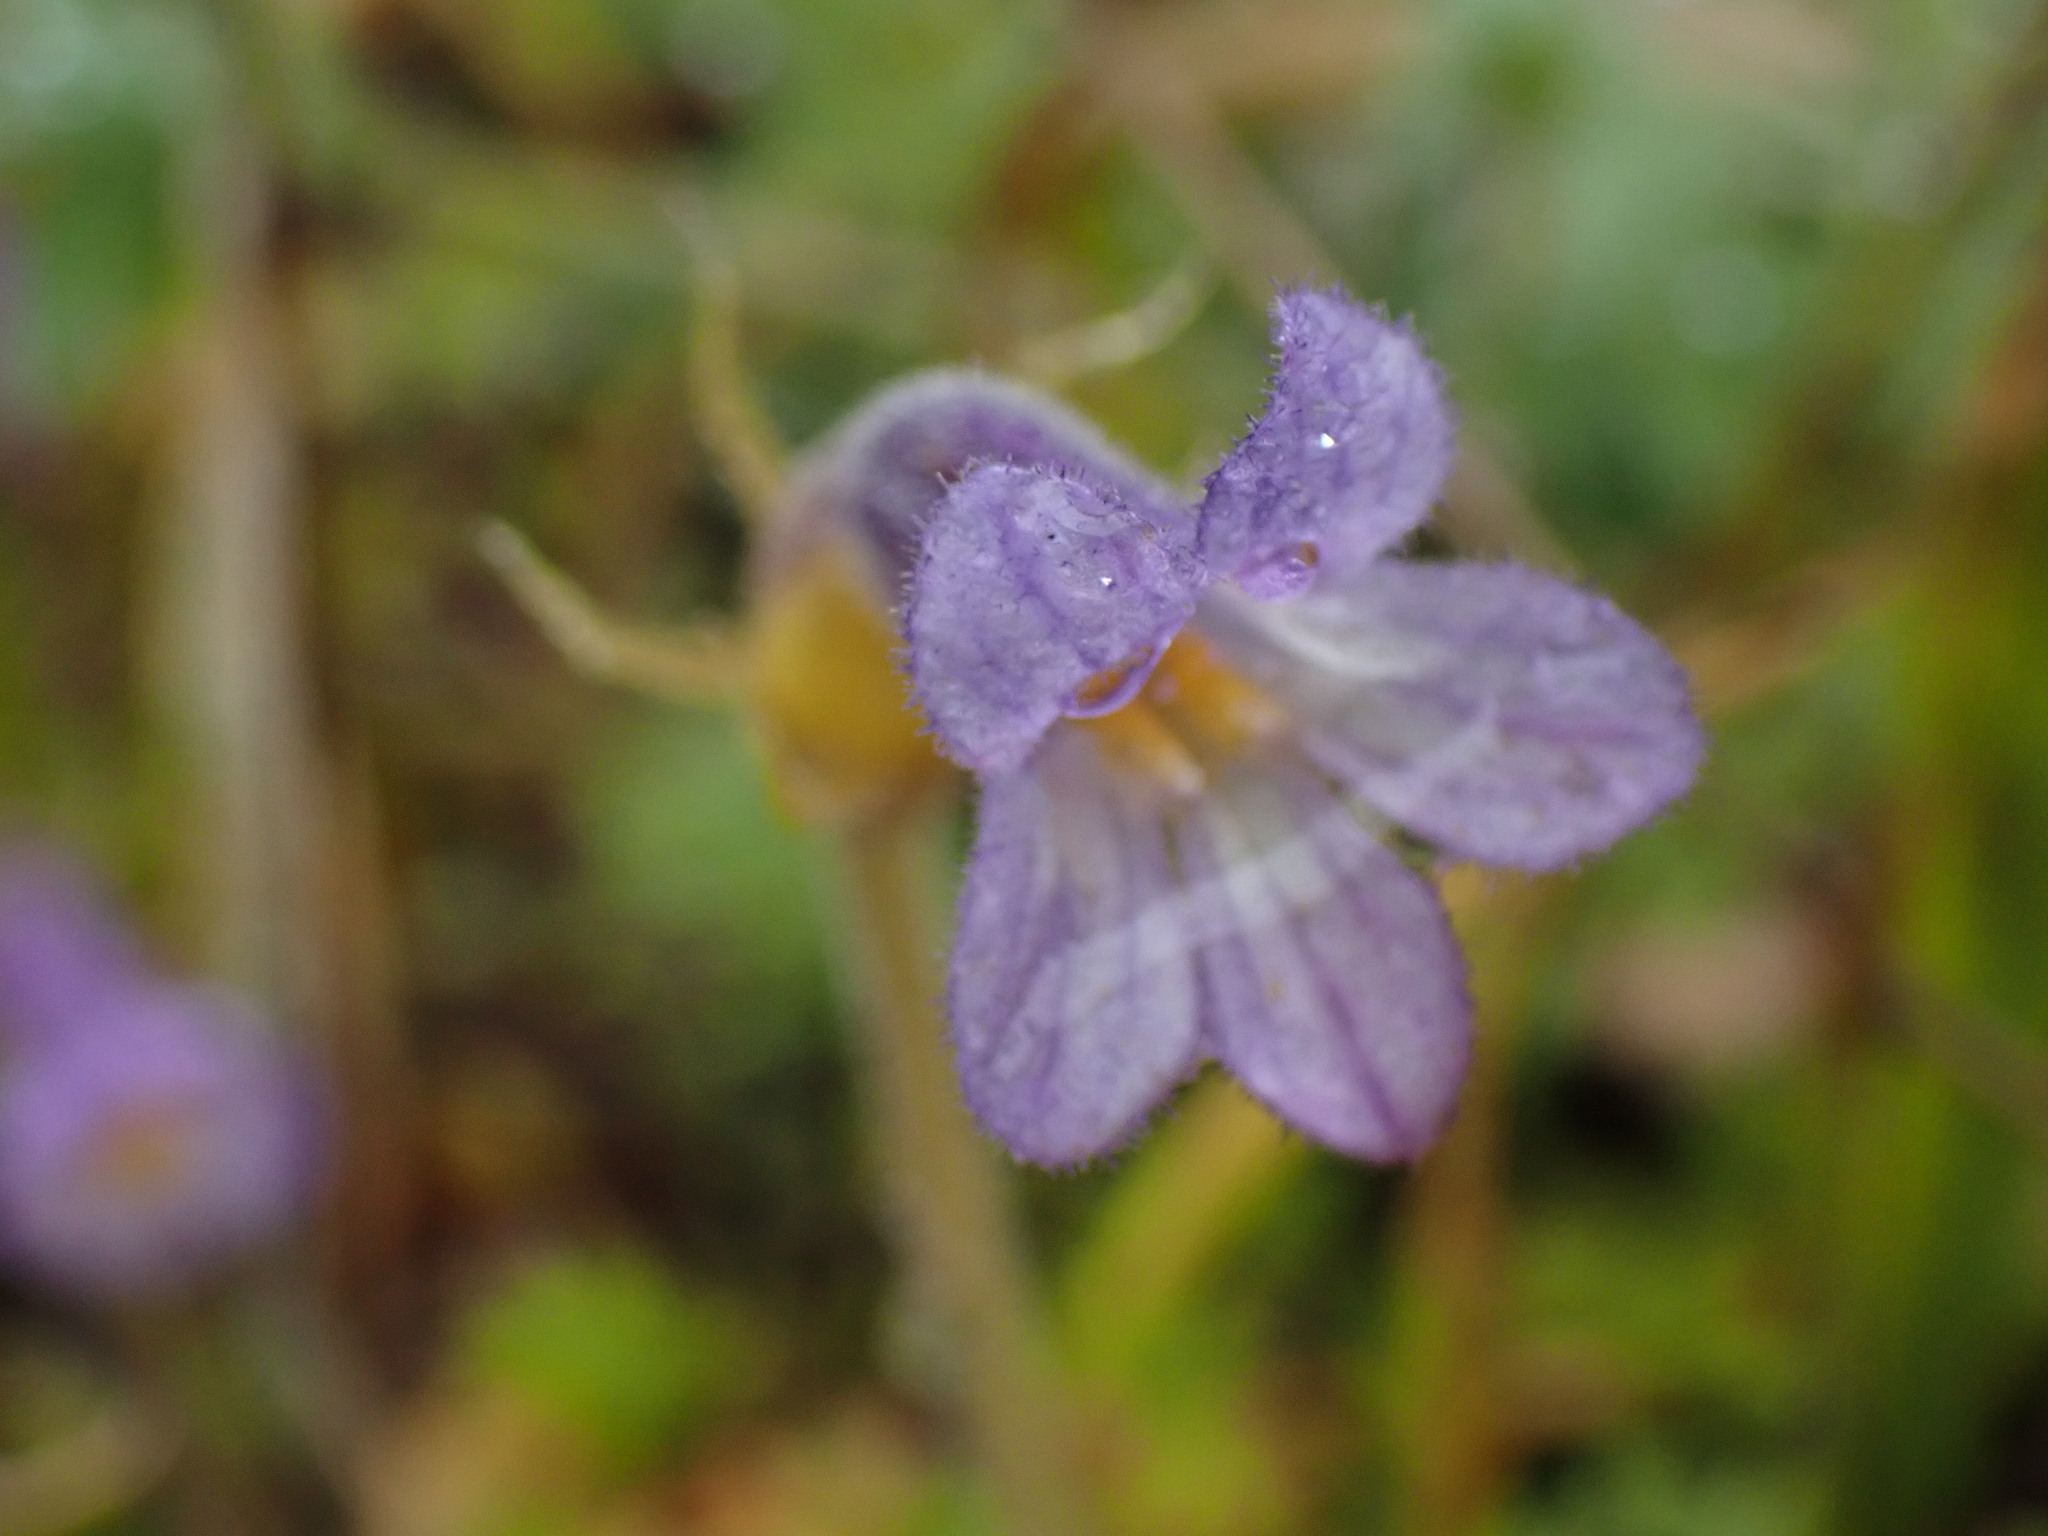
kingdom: Plantae
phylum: Tracheophyta
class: Magnoliopsida
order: Lamiales
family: Orobanchaceae
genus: Aphyllon
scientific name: Aphyllon uniflorum
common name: One-flowered broomrape
